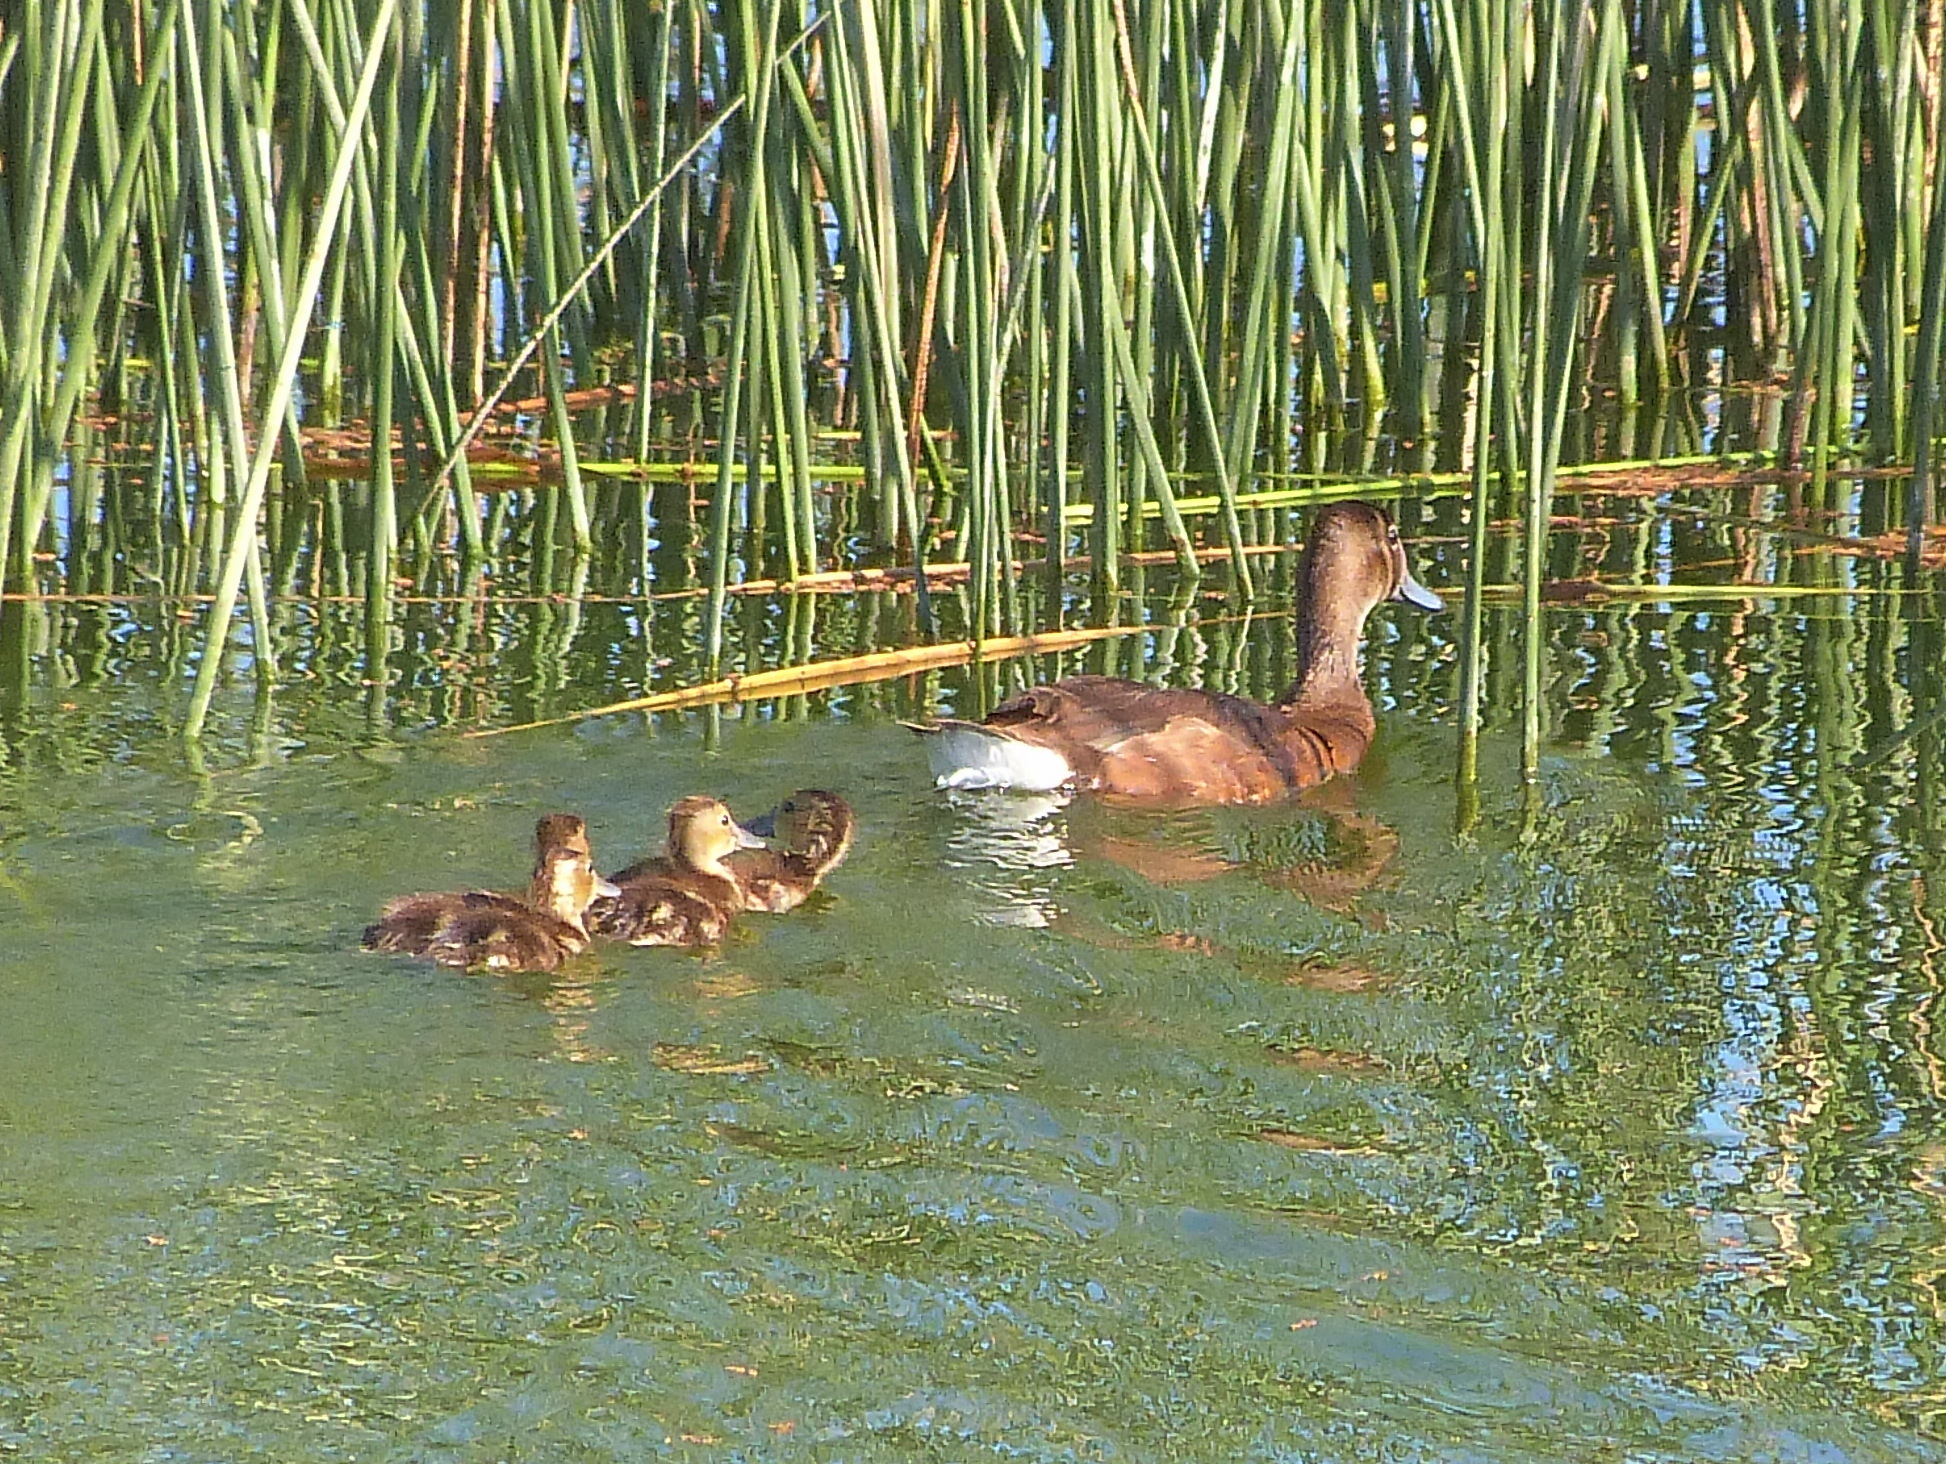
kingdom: Animalia
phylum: Chordata
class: Aves
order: Anseriformes
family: Anatidae
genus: Netta
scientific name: Netta peposaca
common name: Rosy-billed pochard
